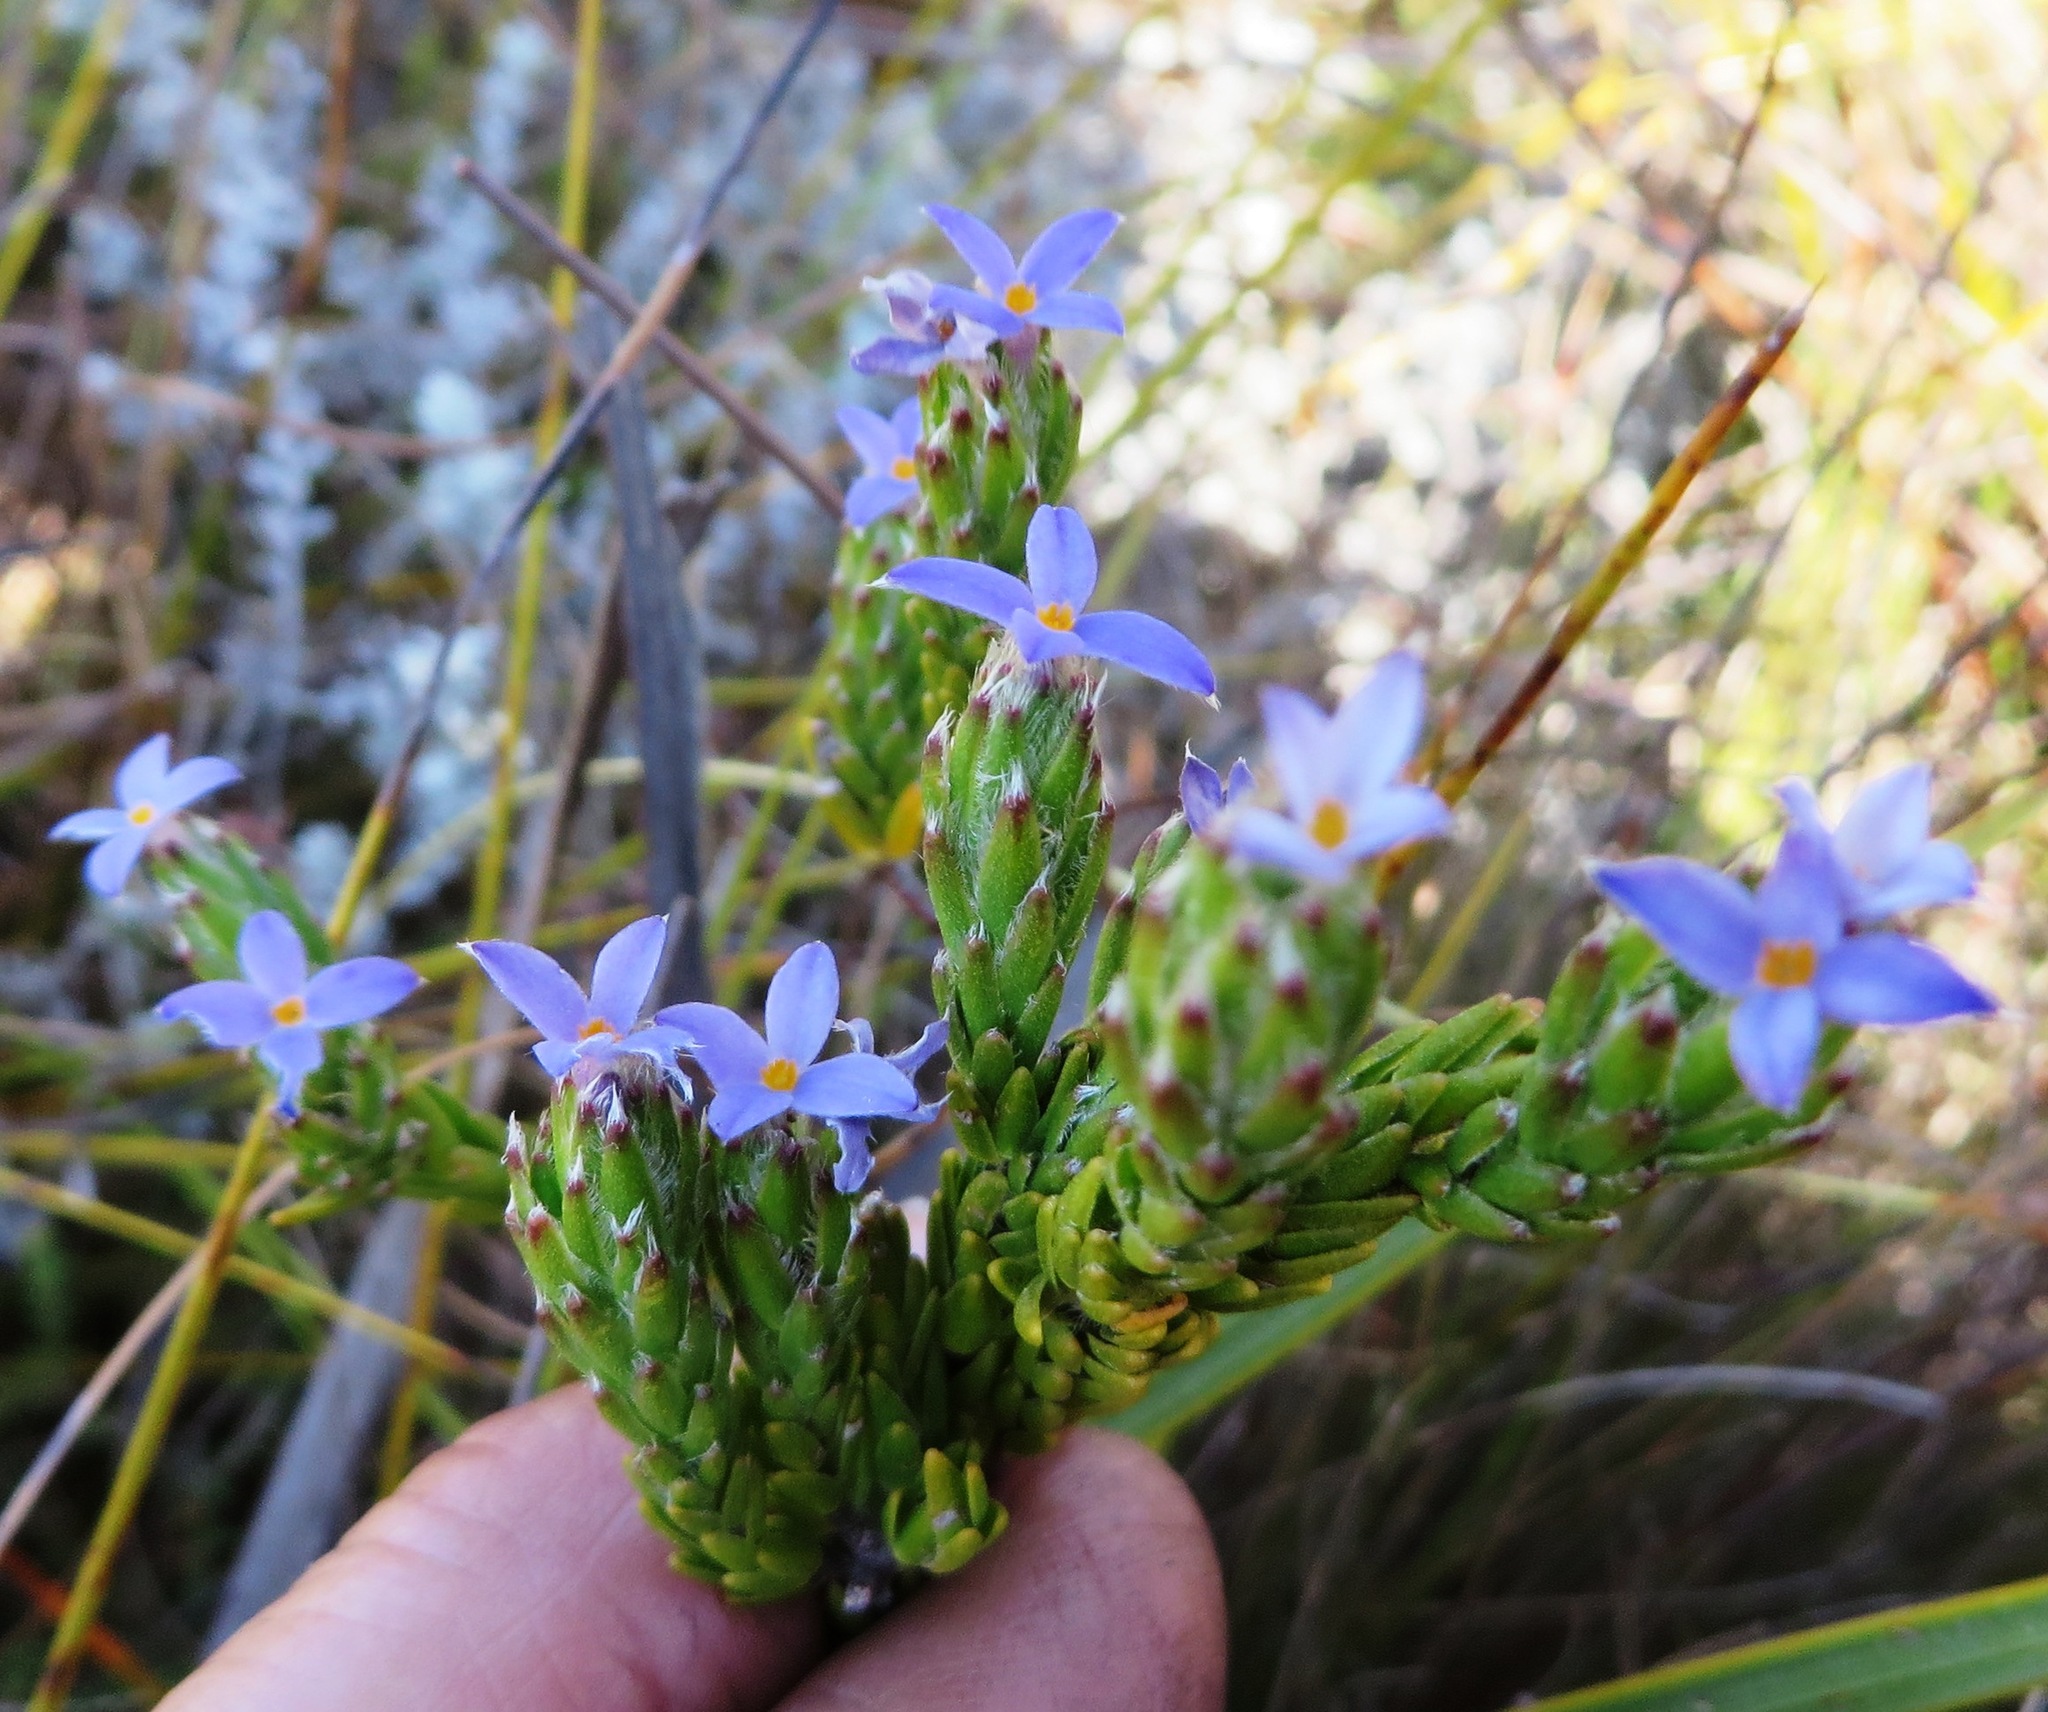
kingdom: Plantae
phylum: Tracheophyta
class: Magnoliopsida
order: Malvales
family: Thymelaeaceae
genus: Gnidia
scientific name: Gnidia penicillata
